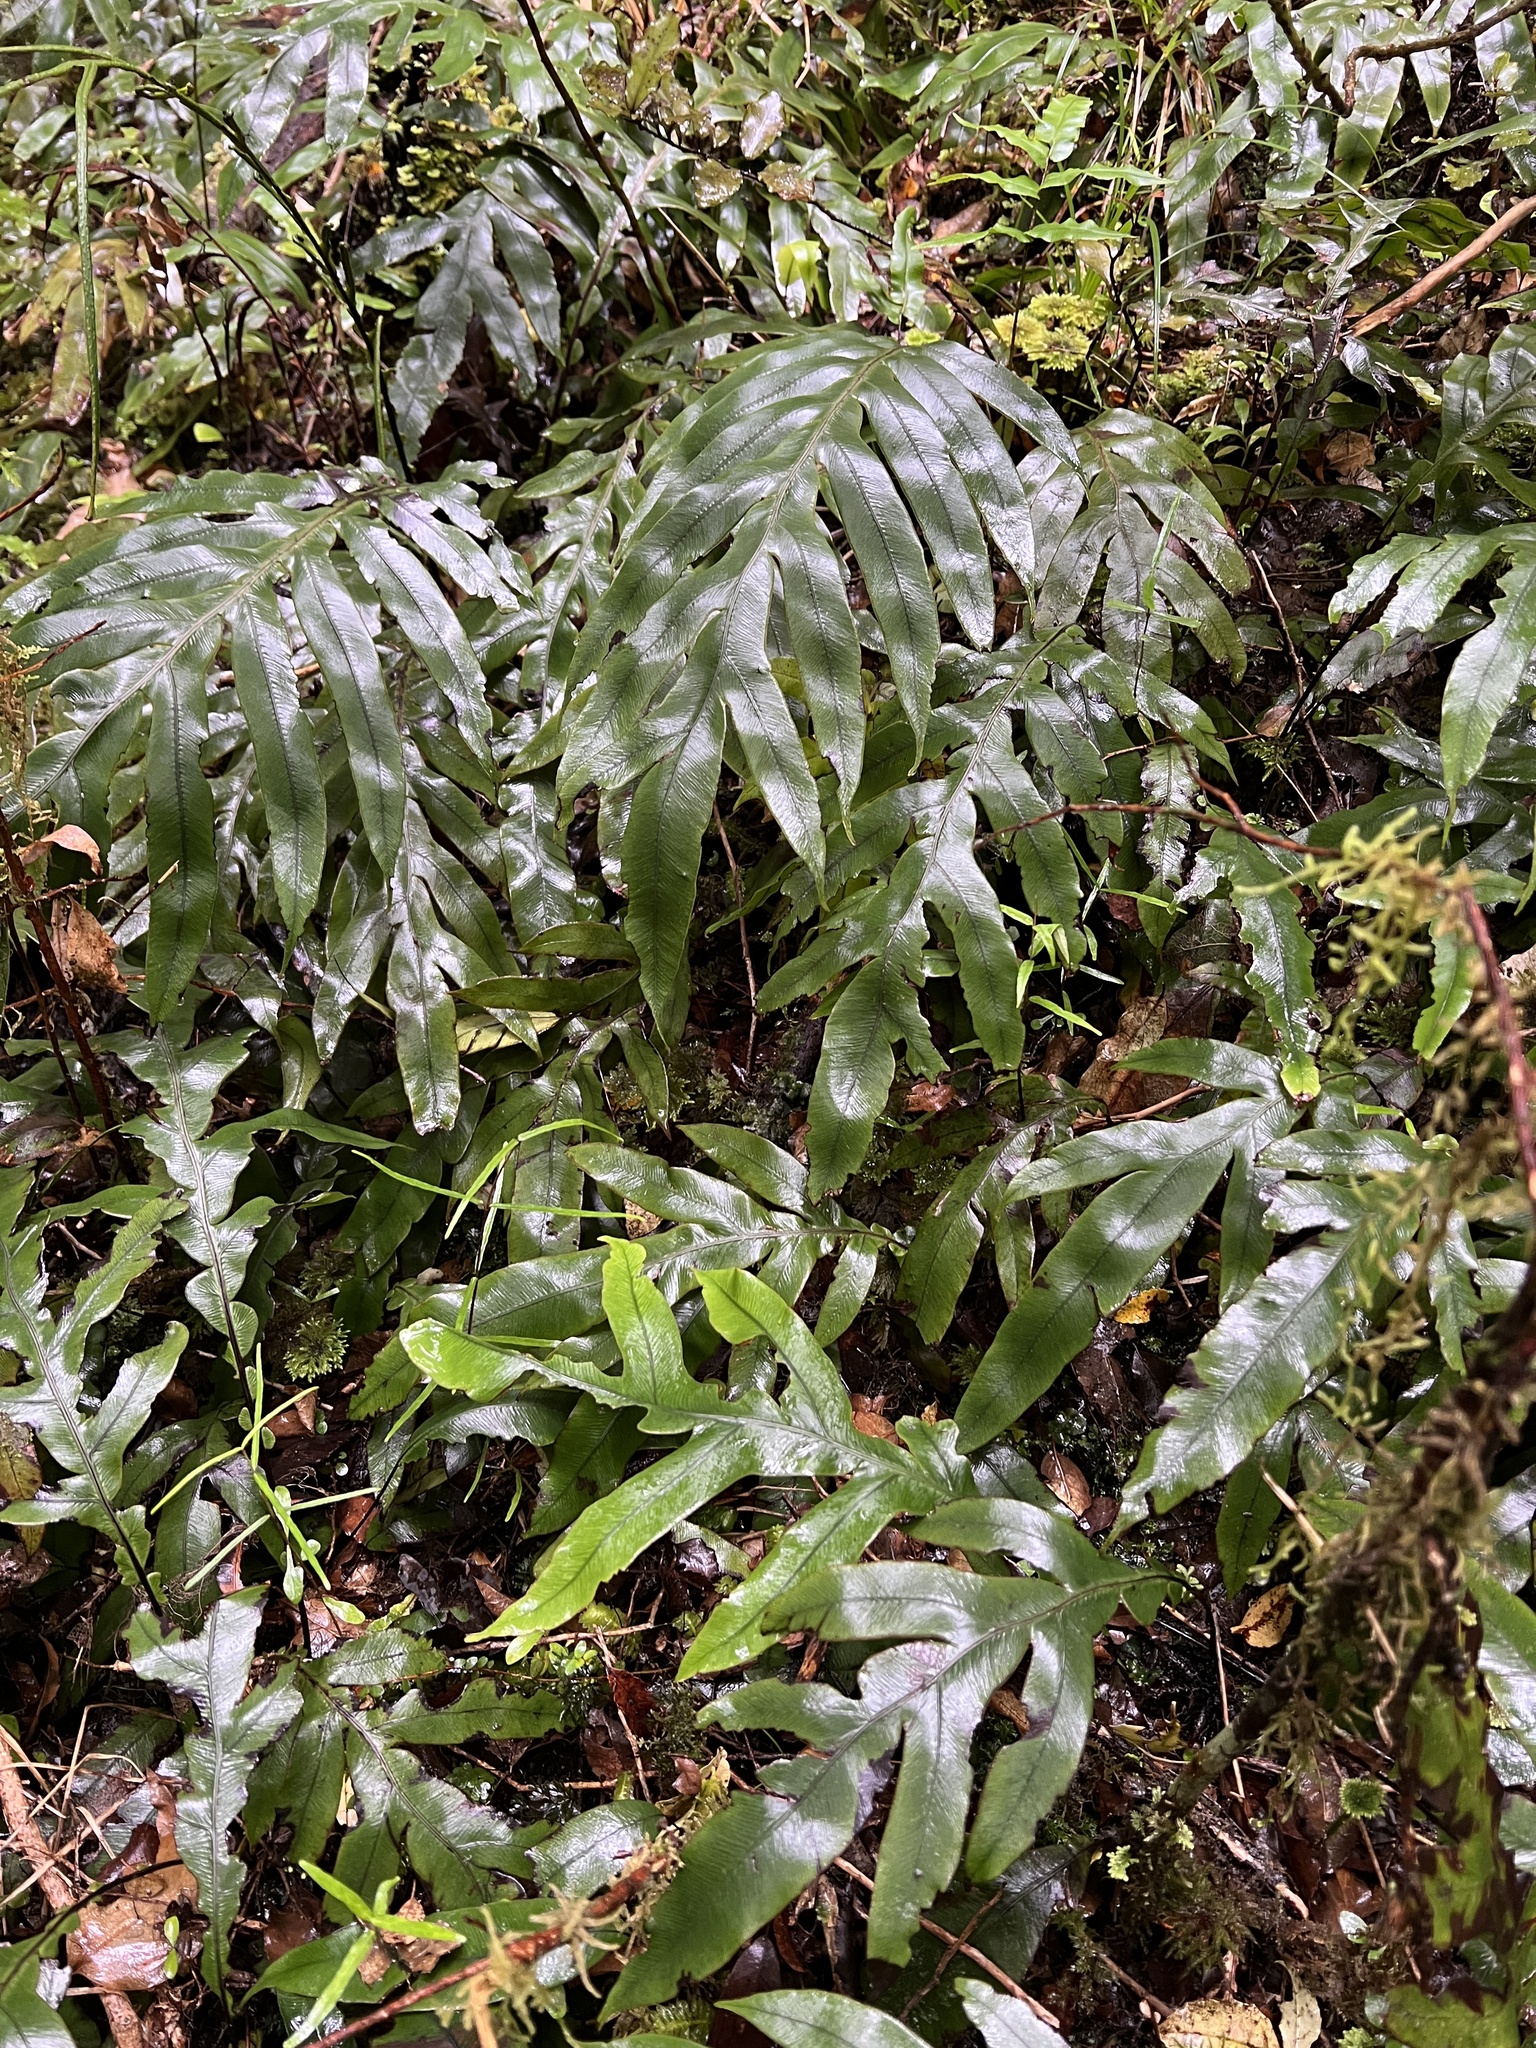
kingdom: Plantae
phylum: Tracheophyta
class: Polypodiopsida
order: Polypodiales
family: Blechnaceae
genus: Austroblechnum
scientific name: Austroblechnum colensoi
